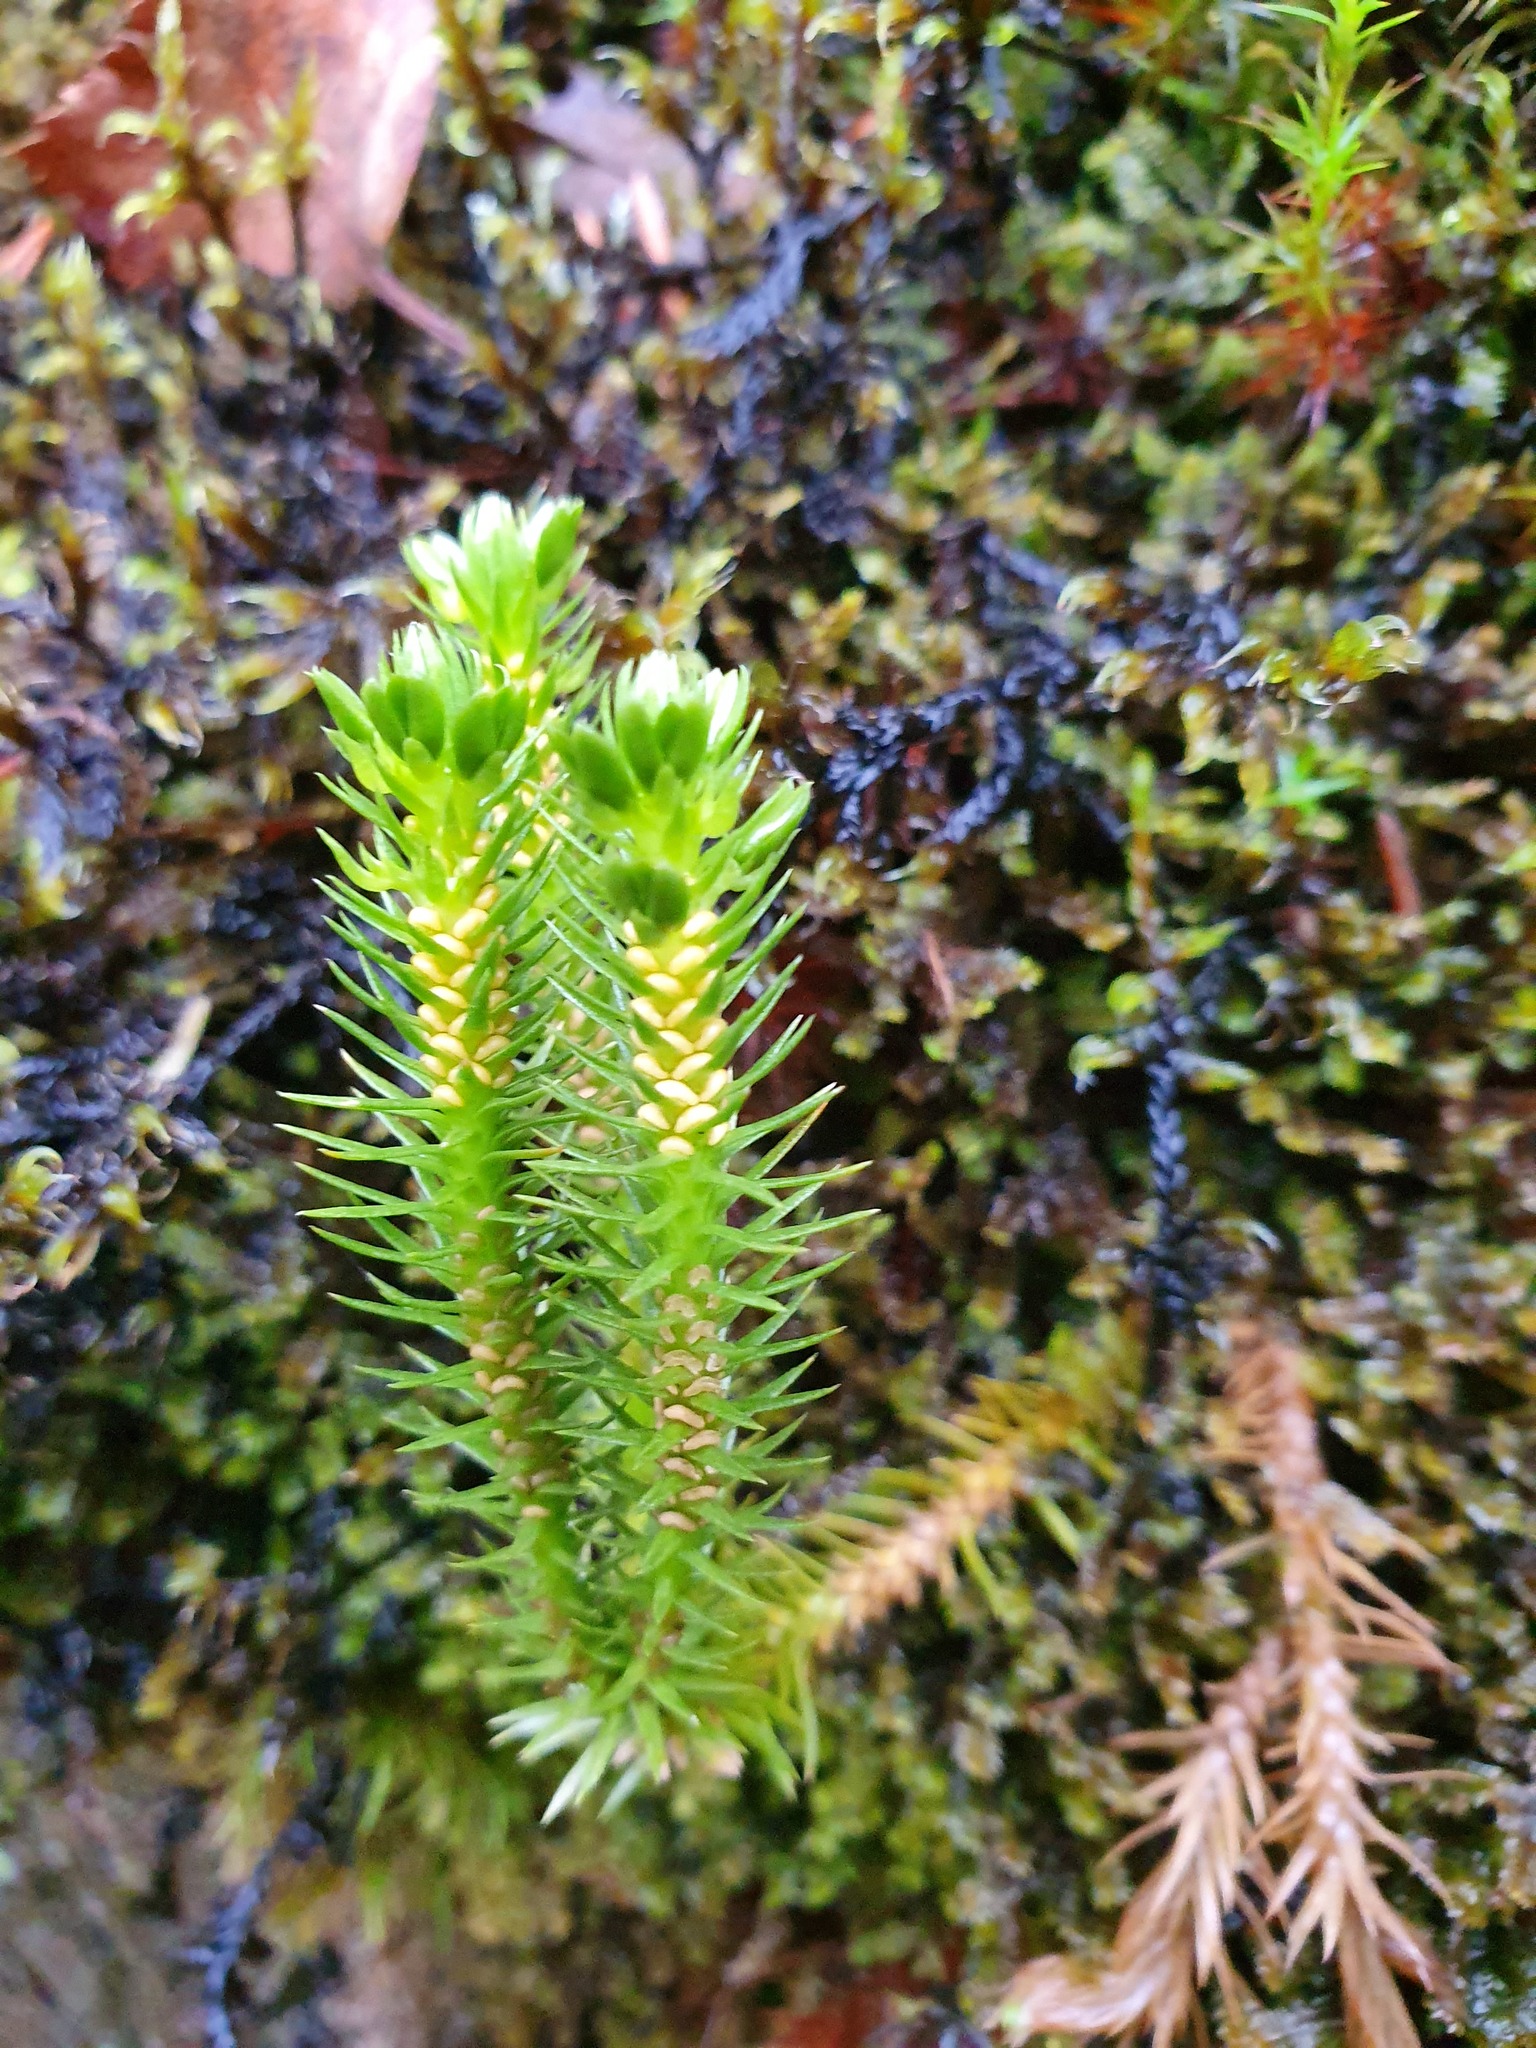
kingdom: Plantae
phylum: Tracheophyta
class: Lycopodiopsida
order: Lycopodiales
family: Lycopodiaceae
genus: Huperzia
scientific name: Huperzia selago
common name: Northern firmoss
